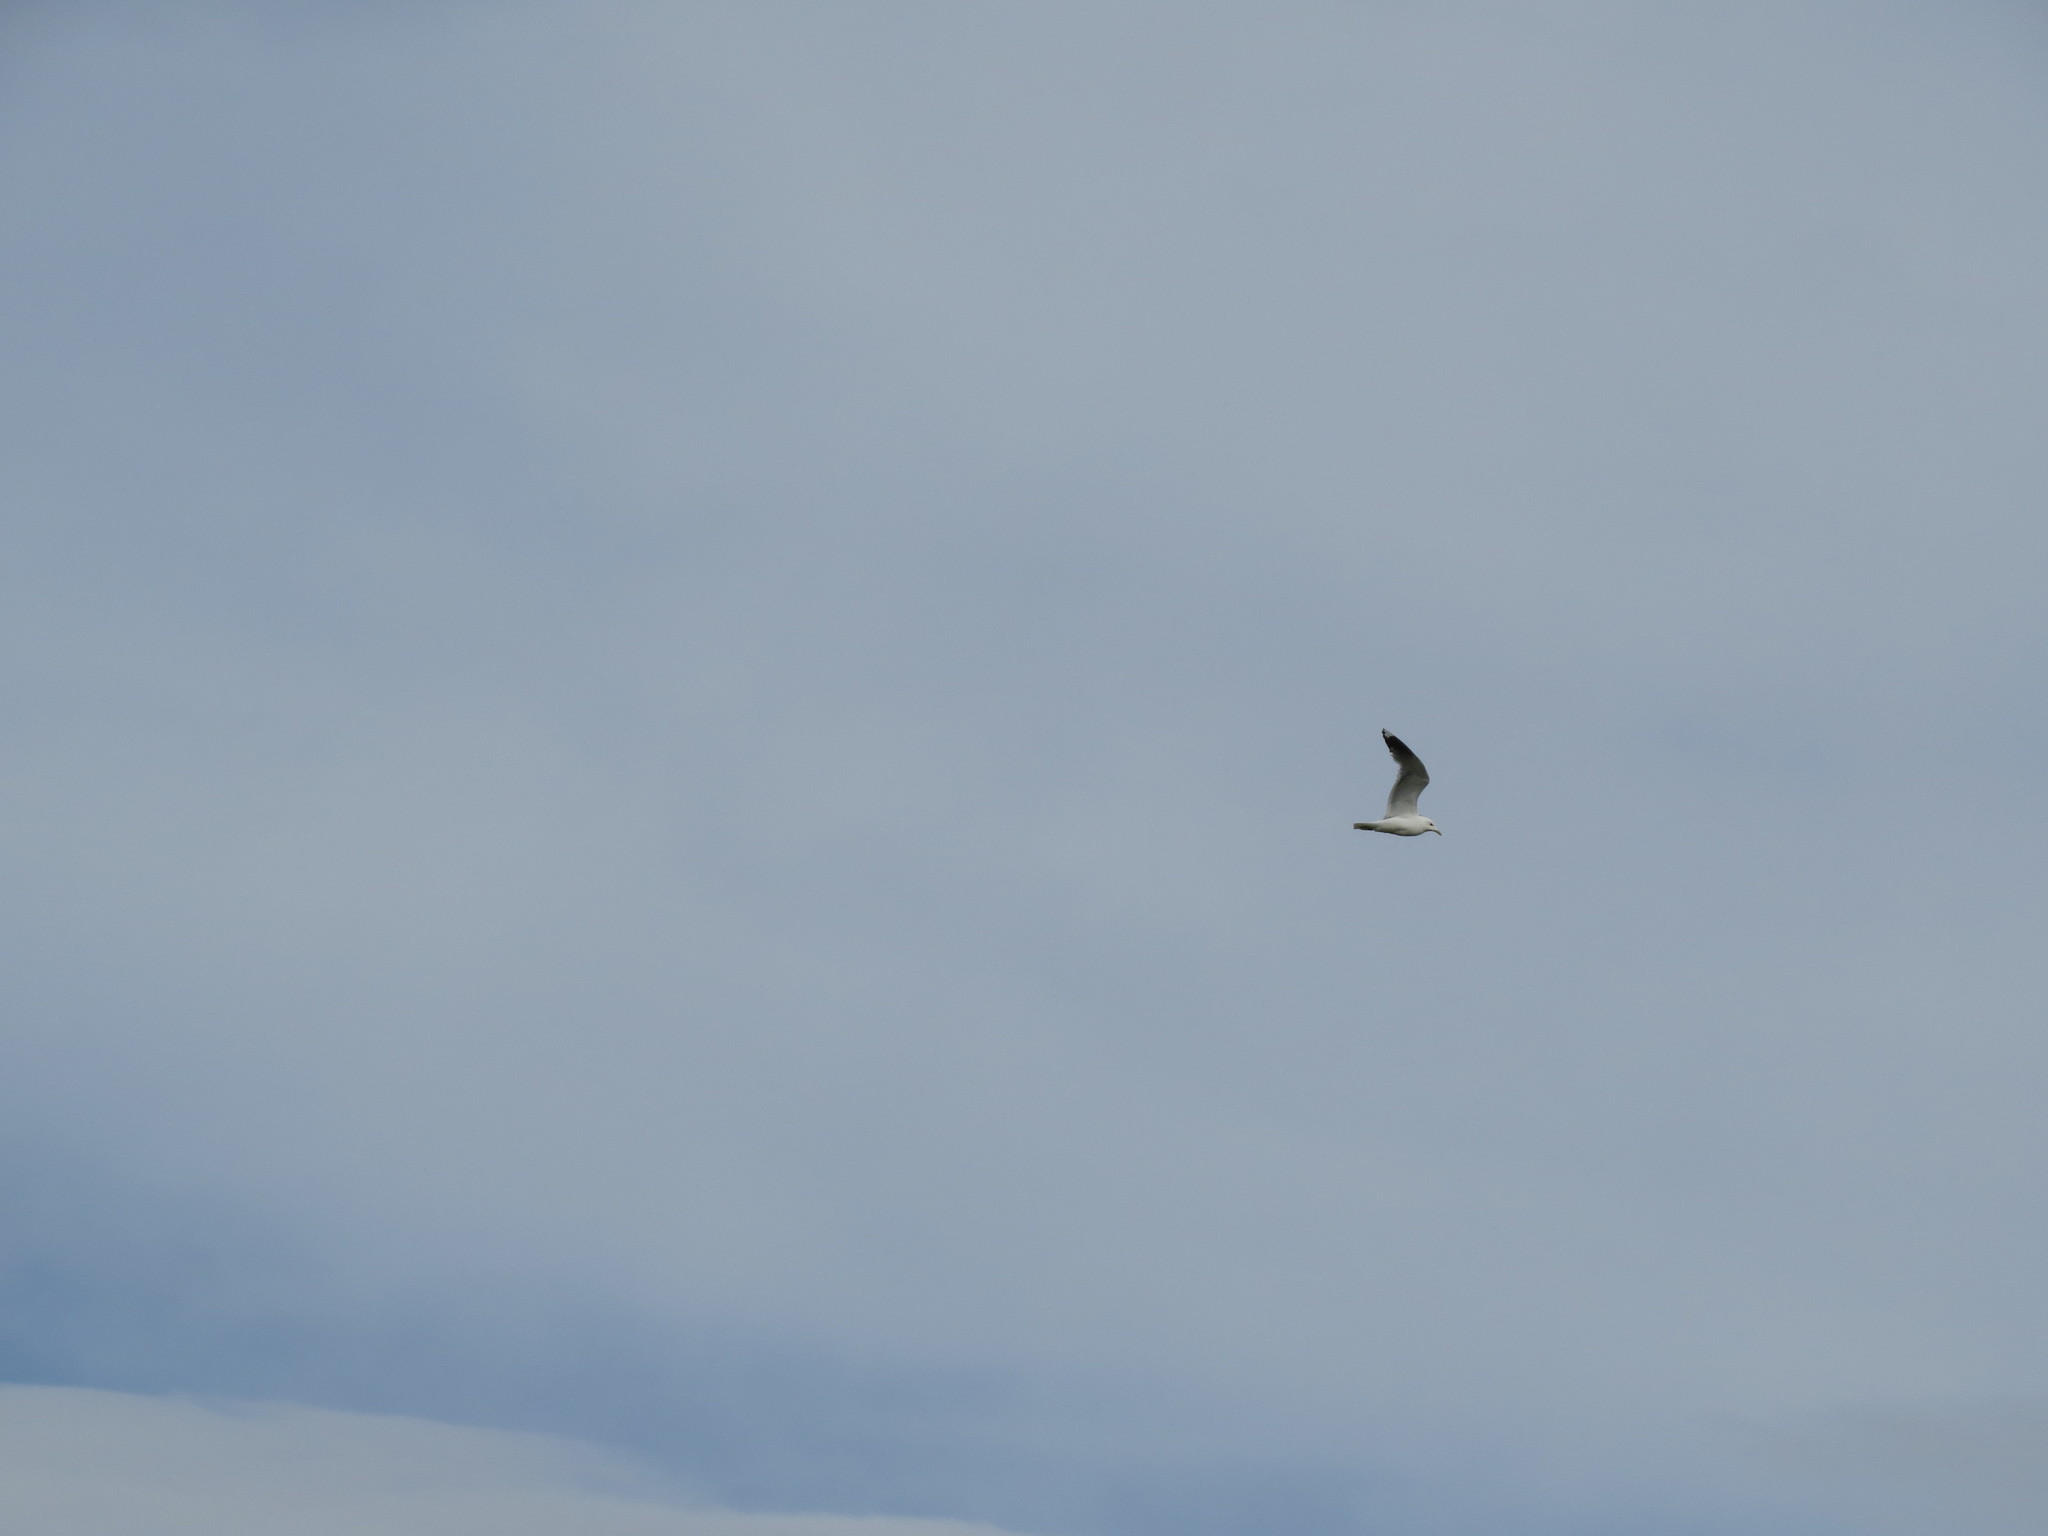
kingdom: Animalia
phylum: Chordata
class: Aves
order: Charadriiformes
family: Laridae
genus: Larus
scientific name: Larus canus
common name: Mew gull
